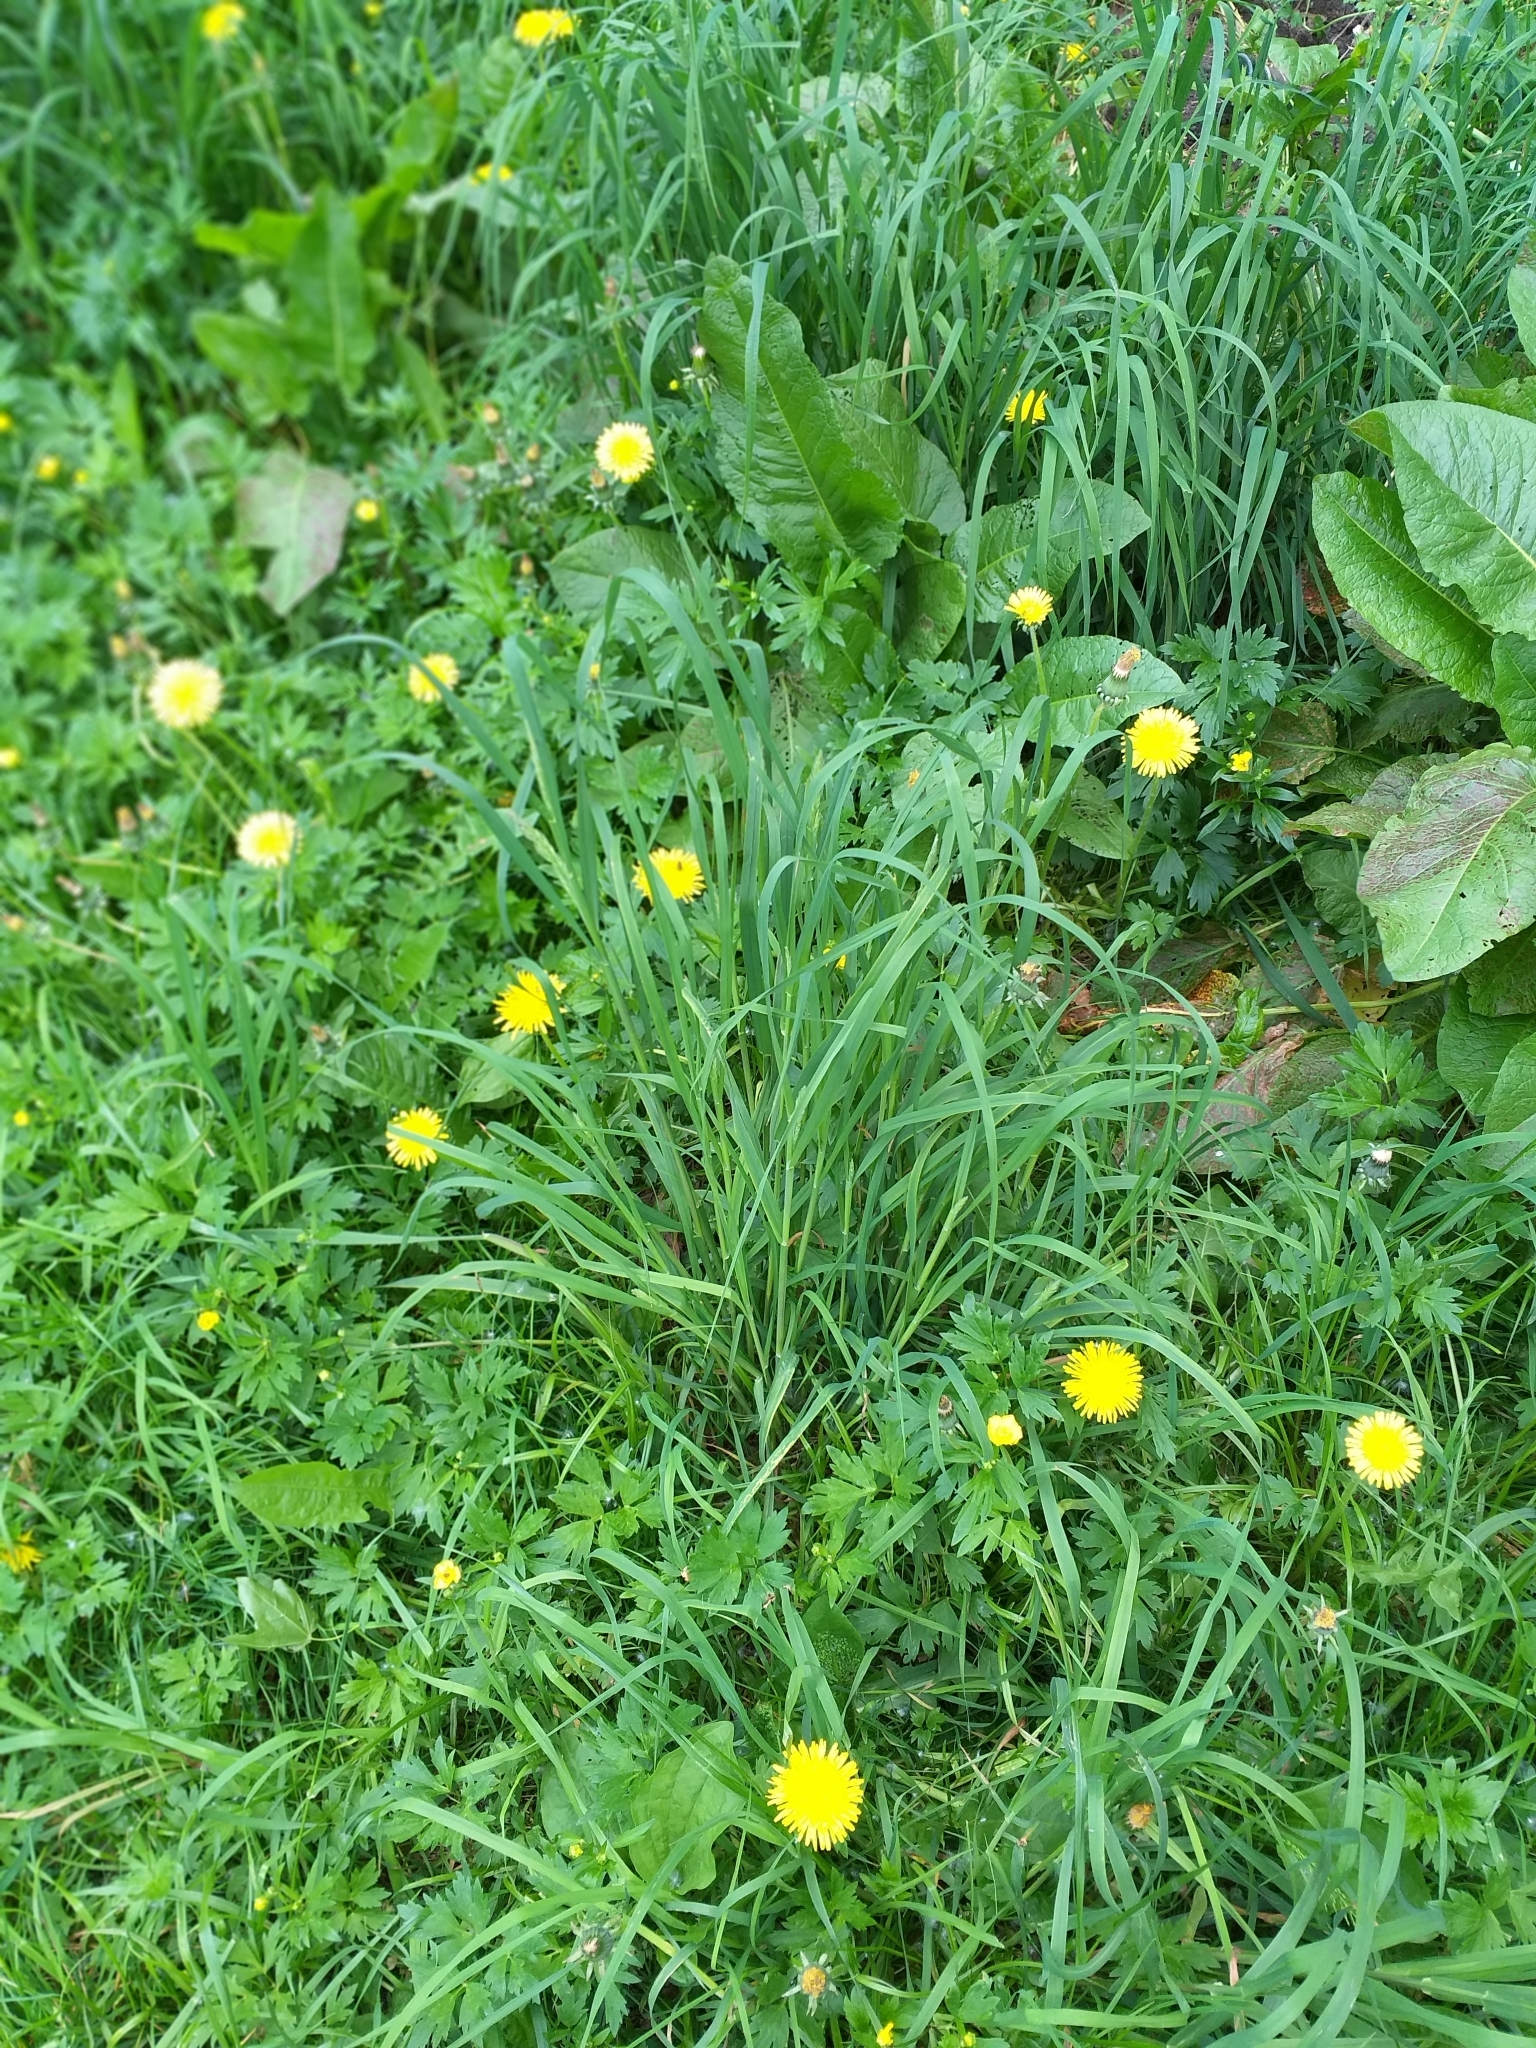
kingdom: Plantae
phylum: Tracheophyta
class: Liliopsida
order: Poales
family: Poaceae
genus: Dactylis
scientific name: Dactylis glomerata
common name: Orchardgrass
